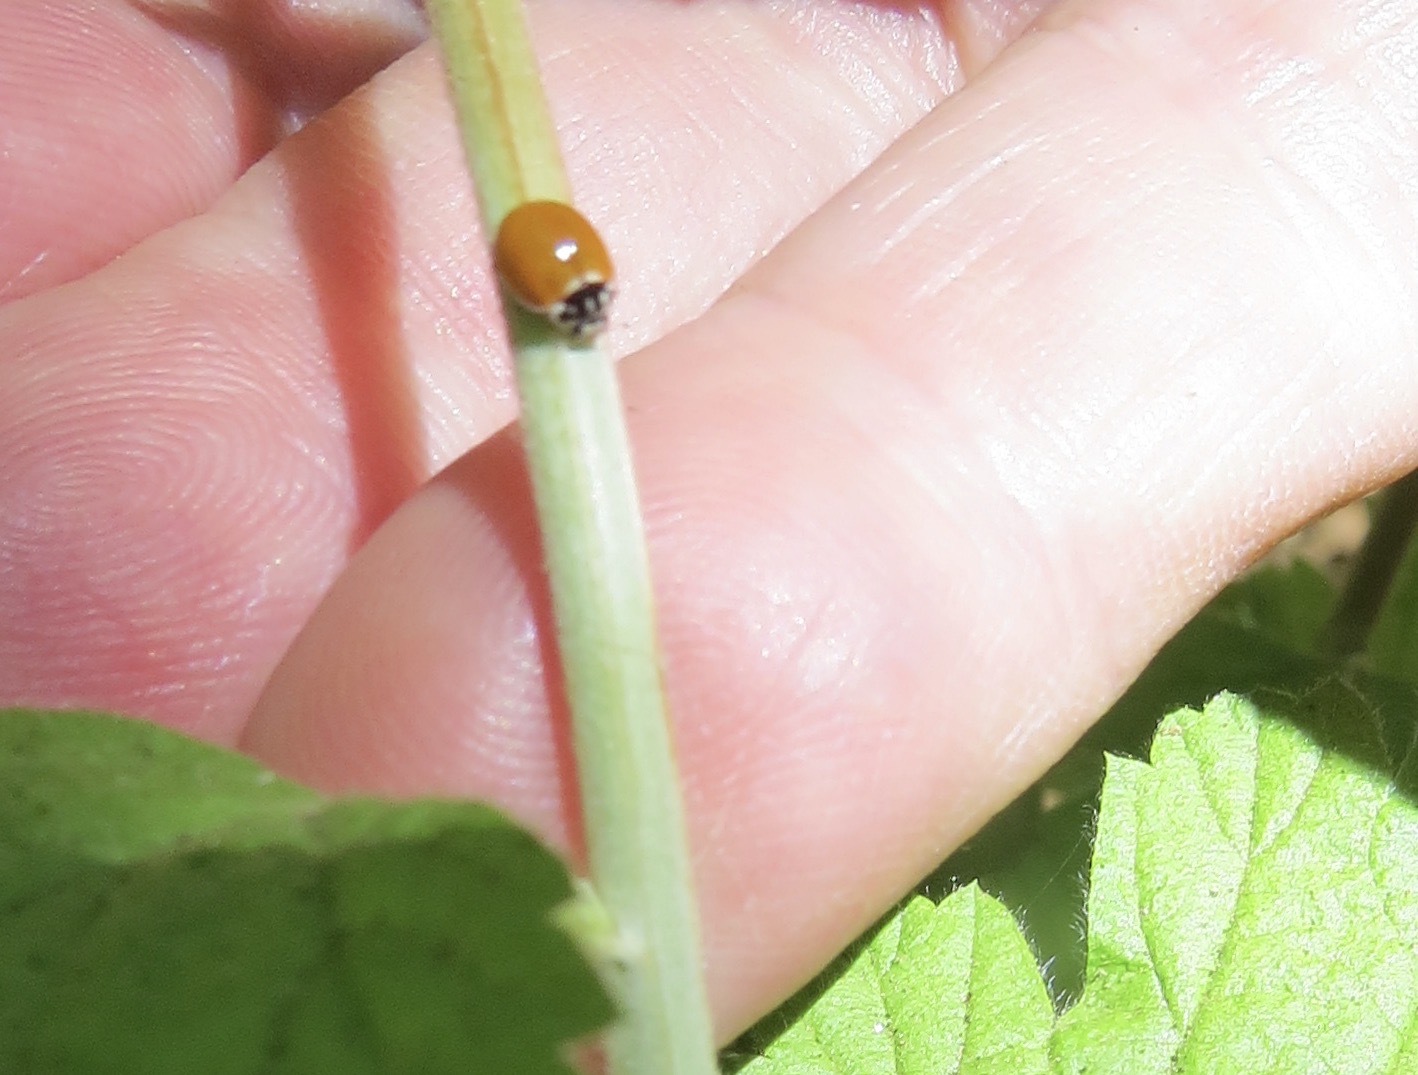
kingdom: Animalia
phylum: Arthropoda
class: Insecta
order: Coleoptera
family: Coccinellidae
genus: Cycloneda
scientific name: Cycloneda sanguinea
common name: Ladybird beetle
